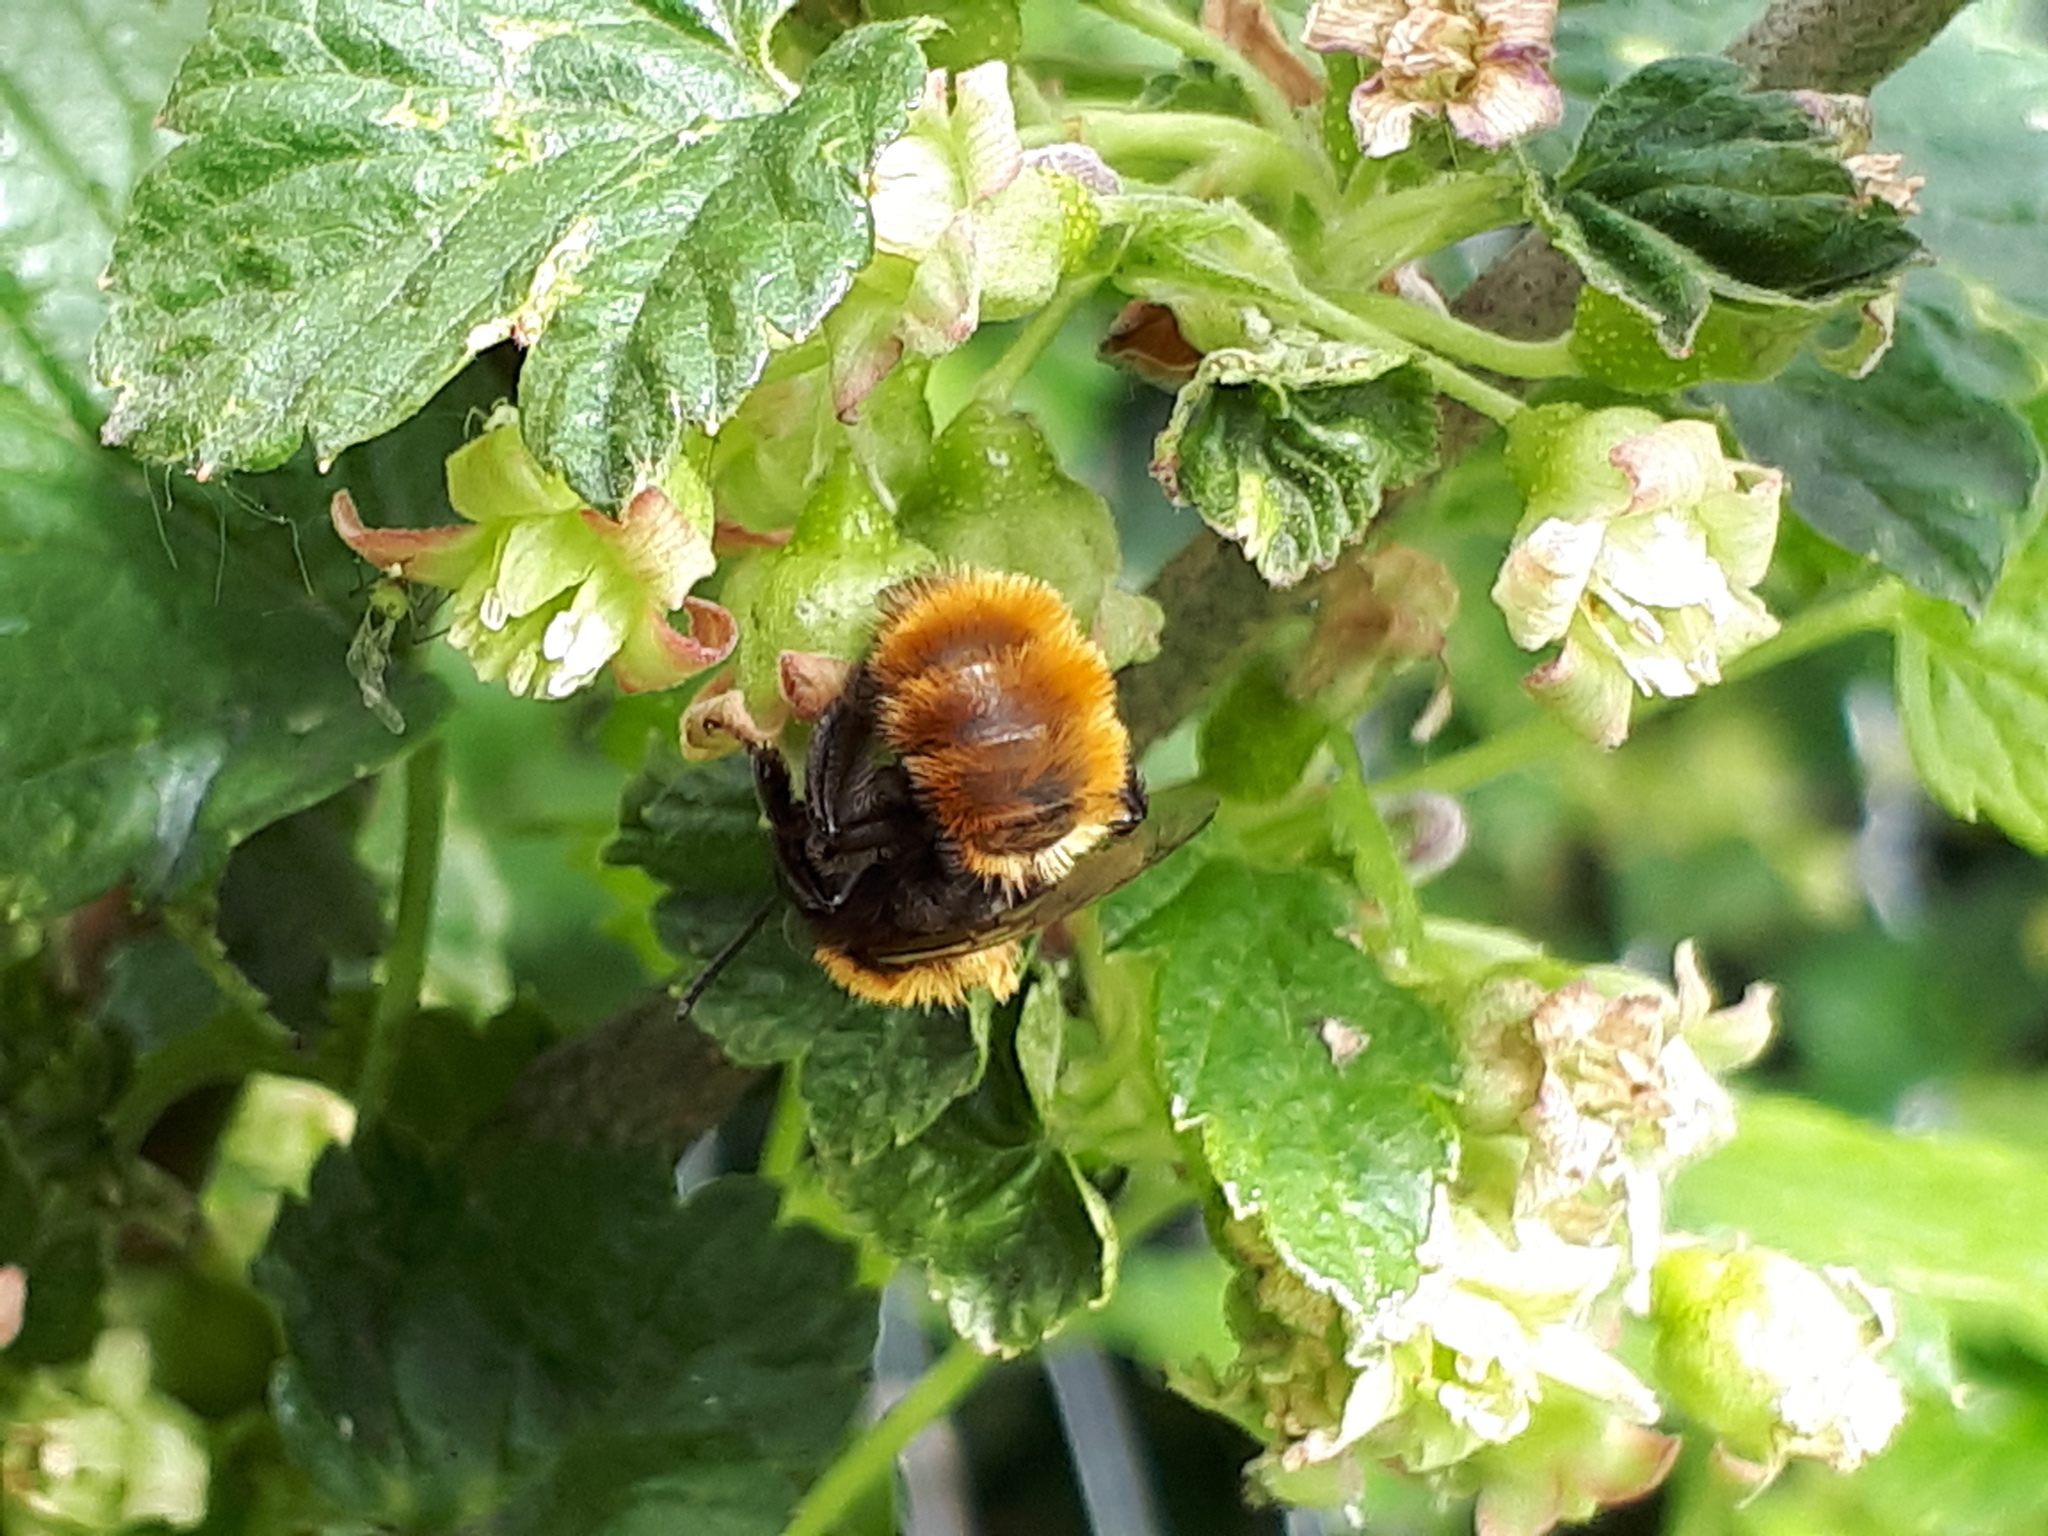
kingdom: Animalia
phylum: Arthropoda
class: Insecta
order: Hymenoptera
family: Andrenidae
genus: Andrena
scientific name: Andrena fulva
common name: Tawny mining bee
